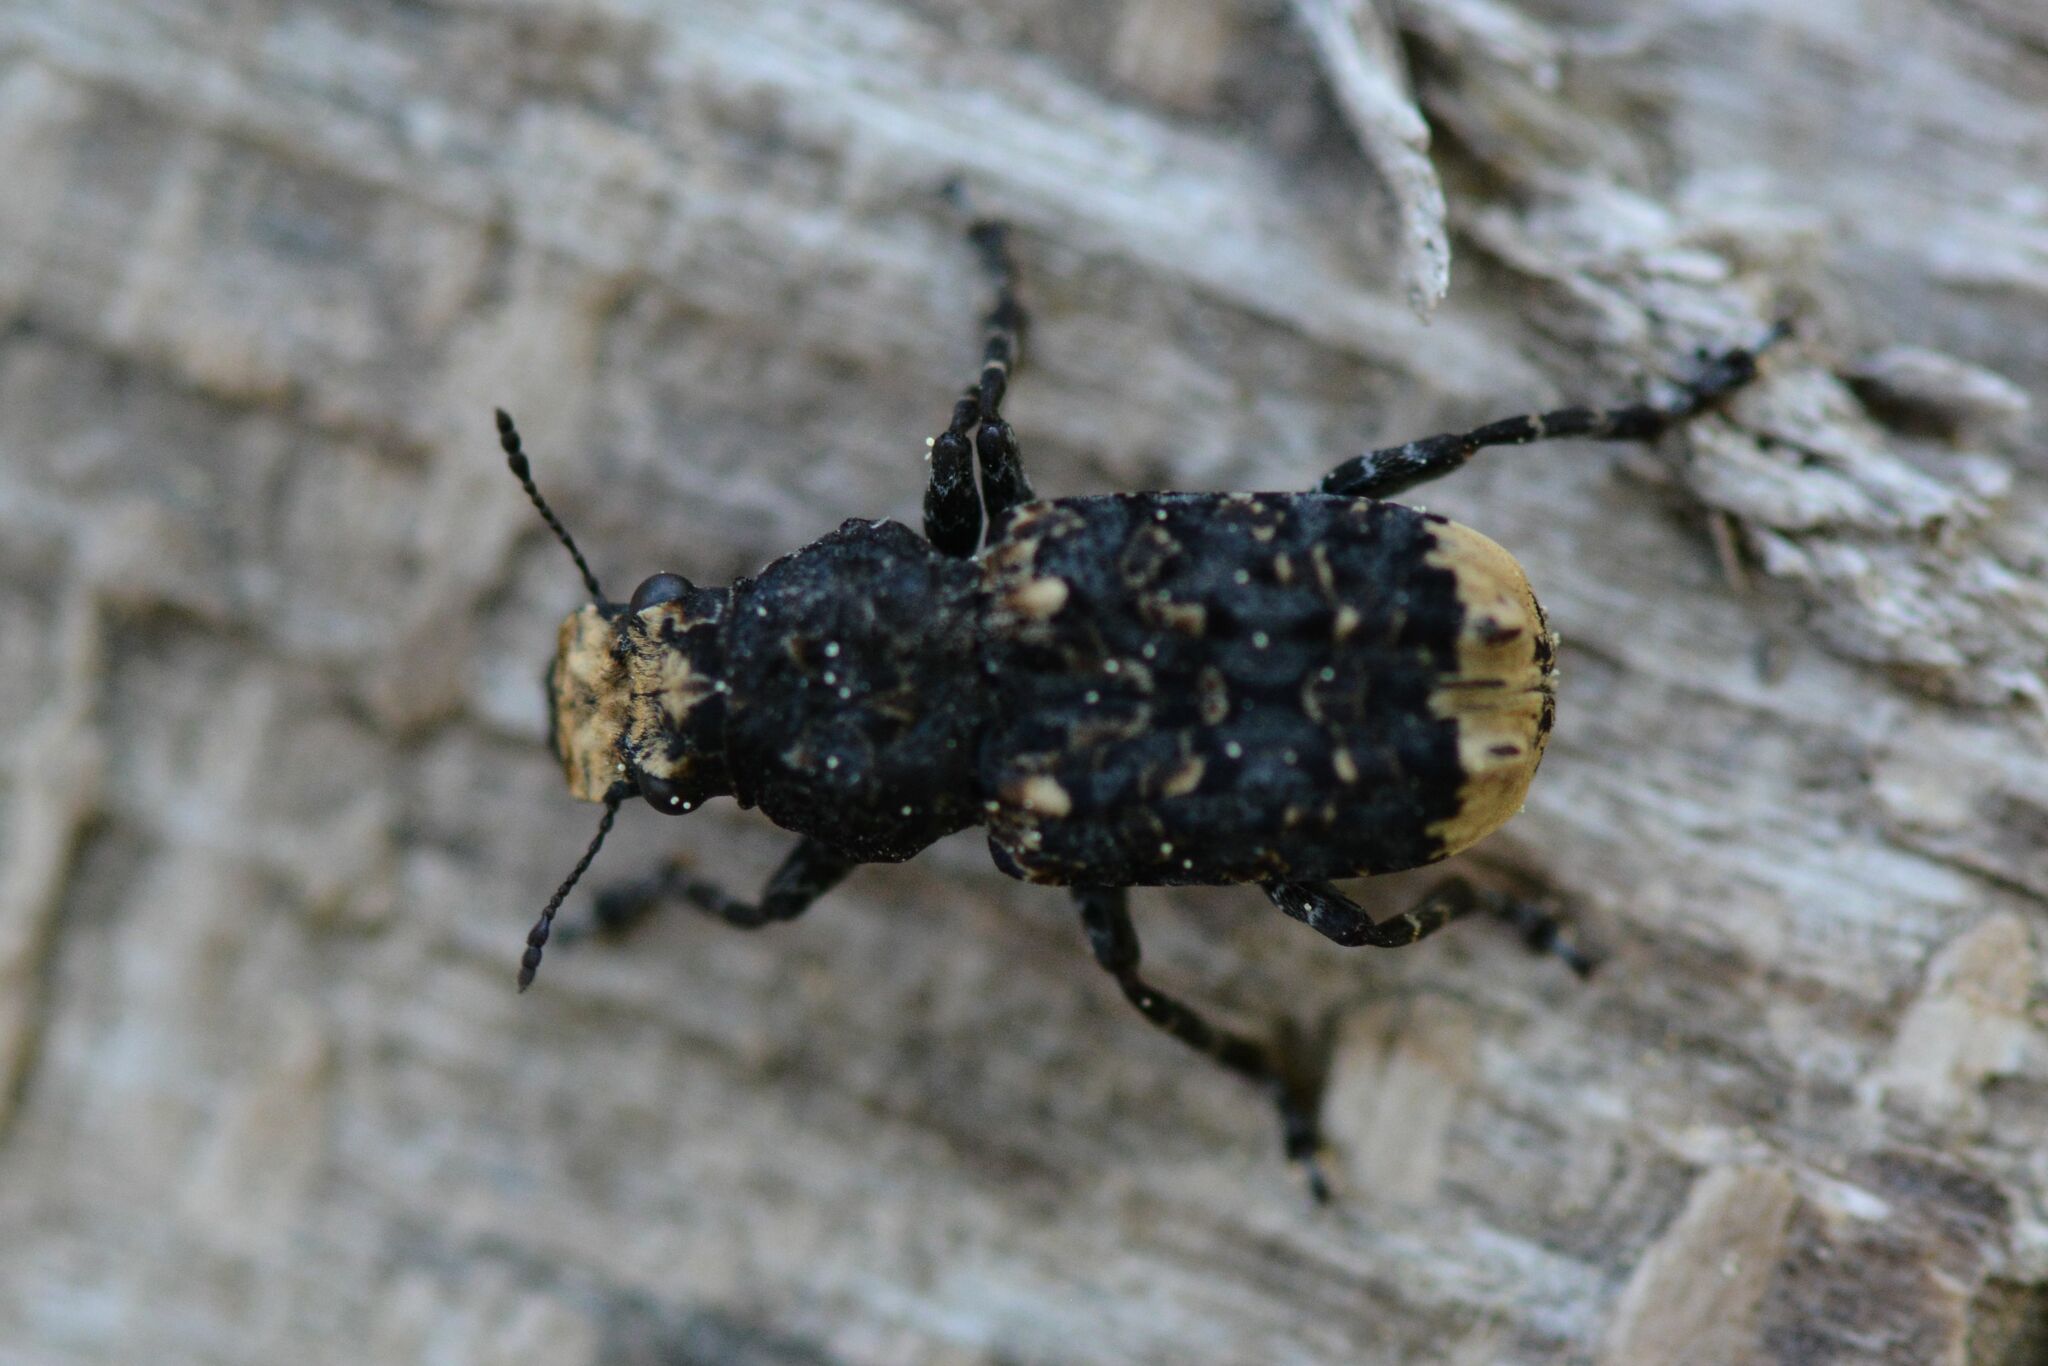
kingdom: Animalia
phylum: Arthropoda
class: Insecta
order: Coleoptera
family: Anthribidae
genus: Platyrhinus
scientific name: Platyrhinus resinosus
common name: Cramp-ball fungus weevil
